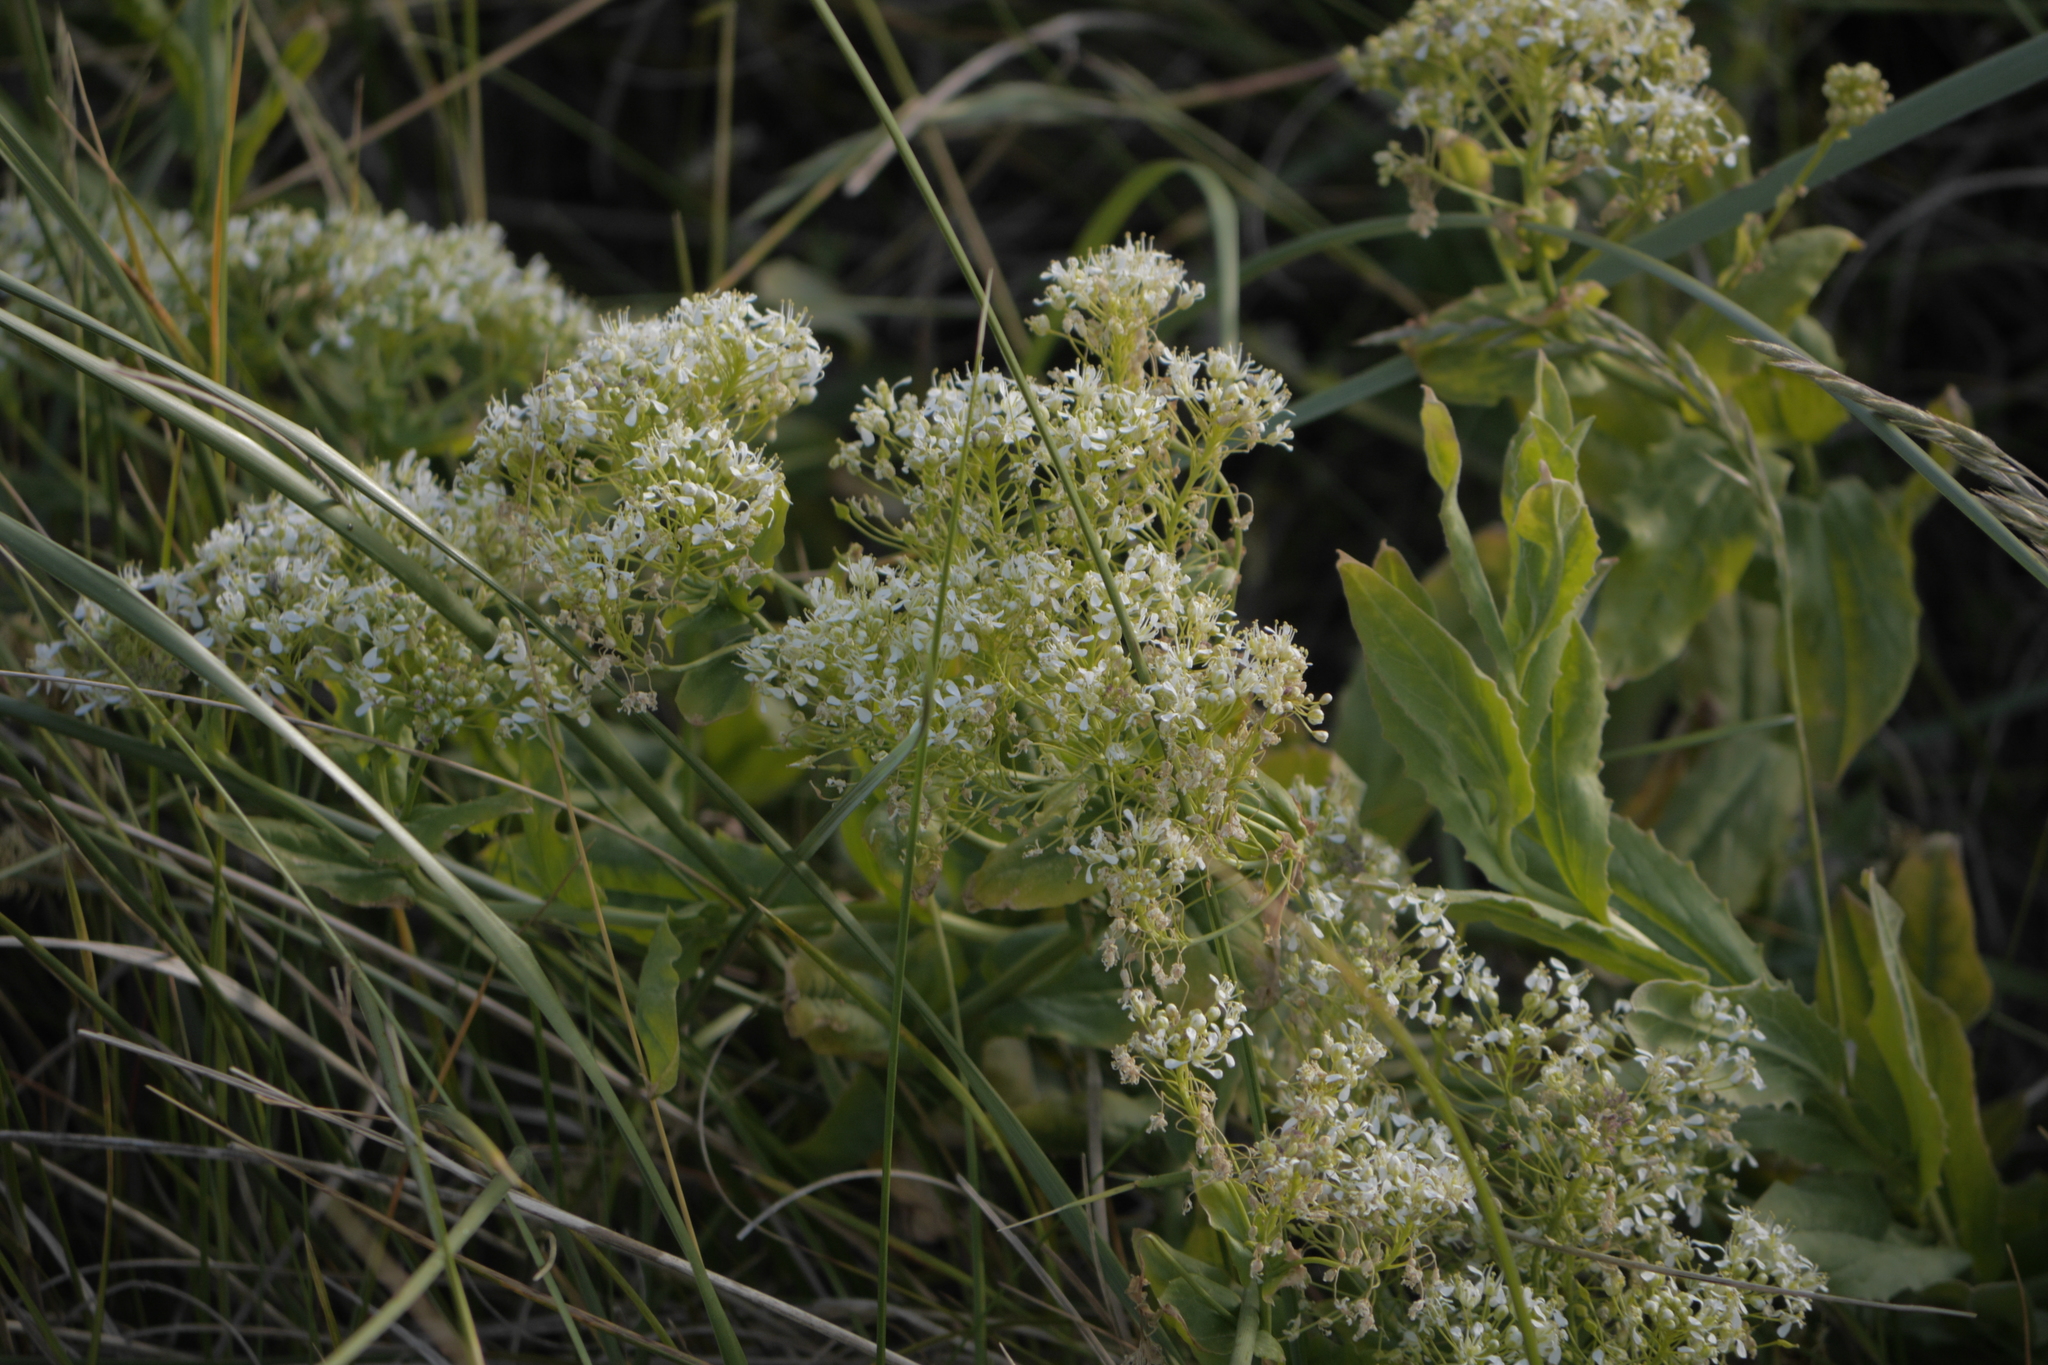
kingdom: Plantae
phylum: Tracheophyta
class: Magnoliopsida
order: Brassicales
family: Brassicaceae
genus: Lepidium
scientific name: Lepidium draba
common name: Hoary cress
